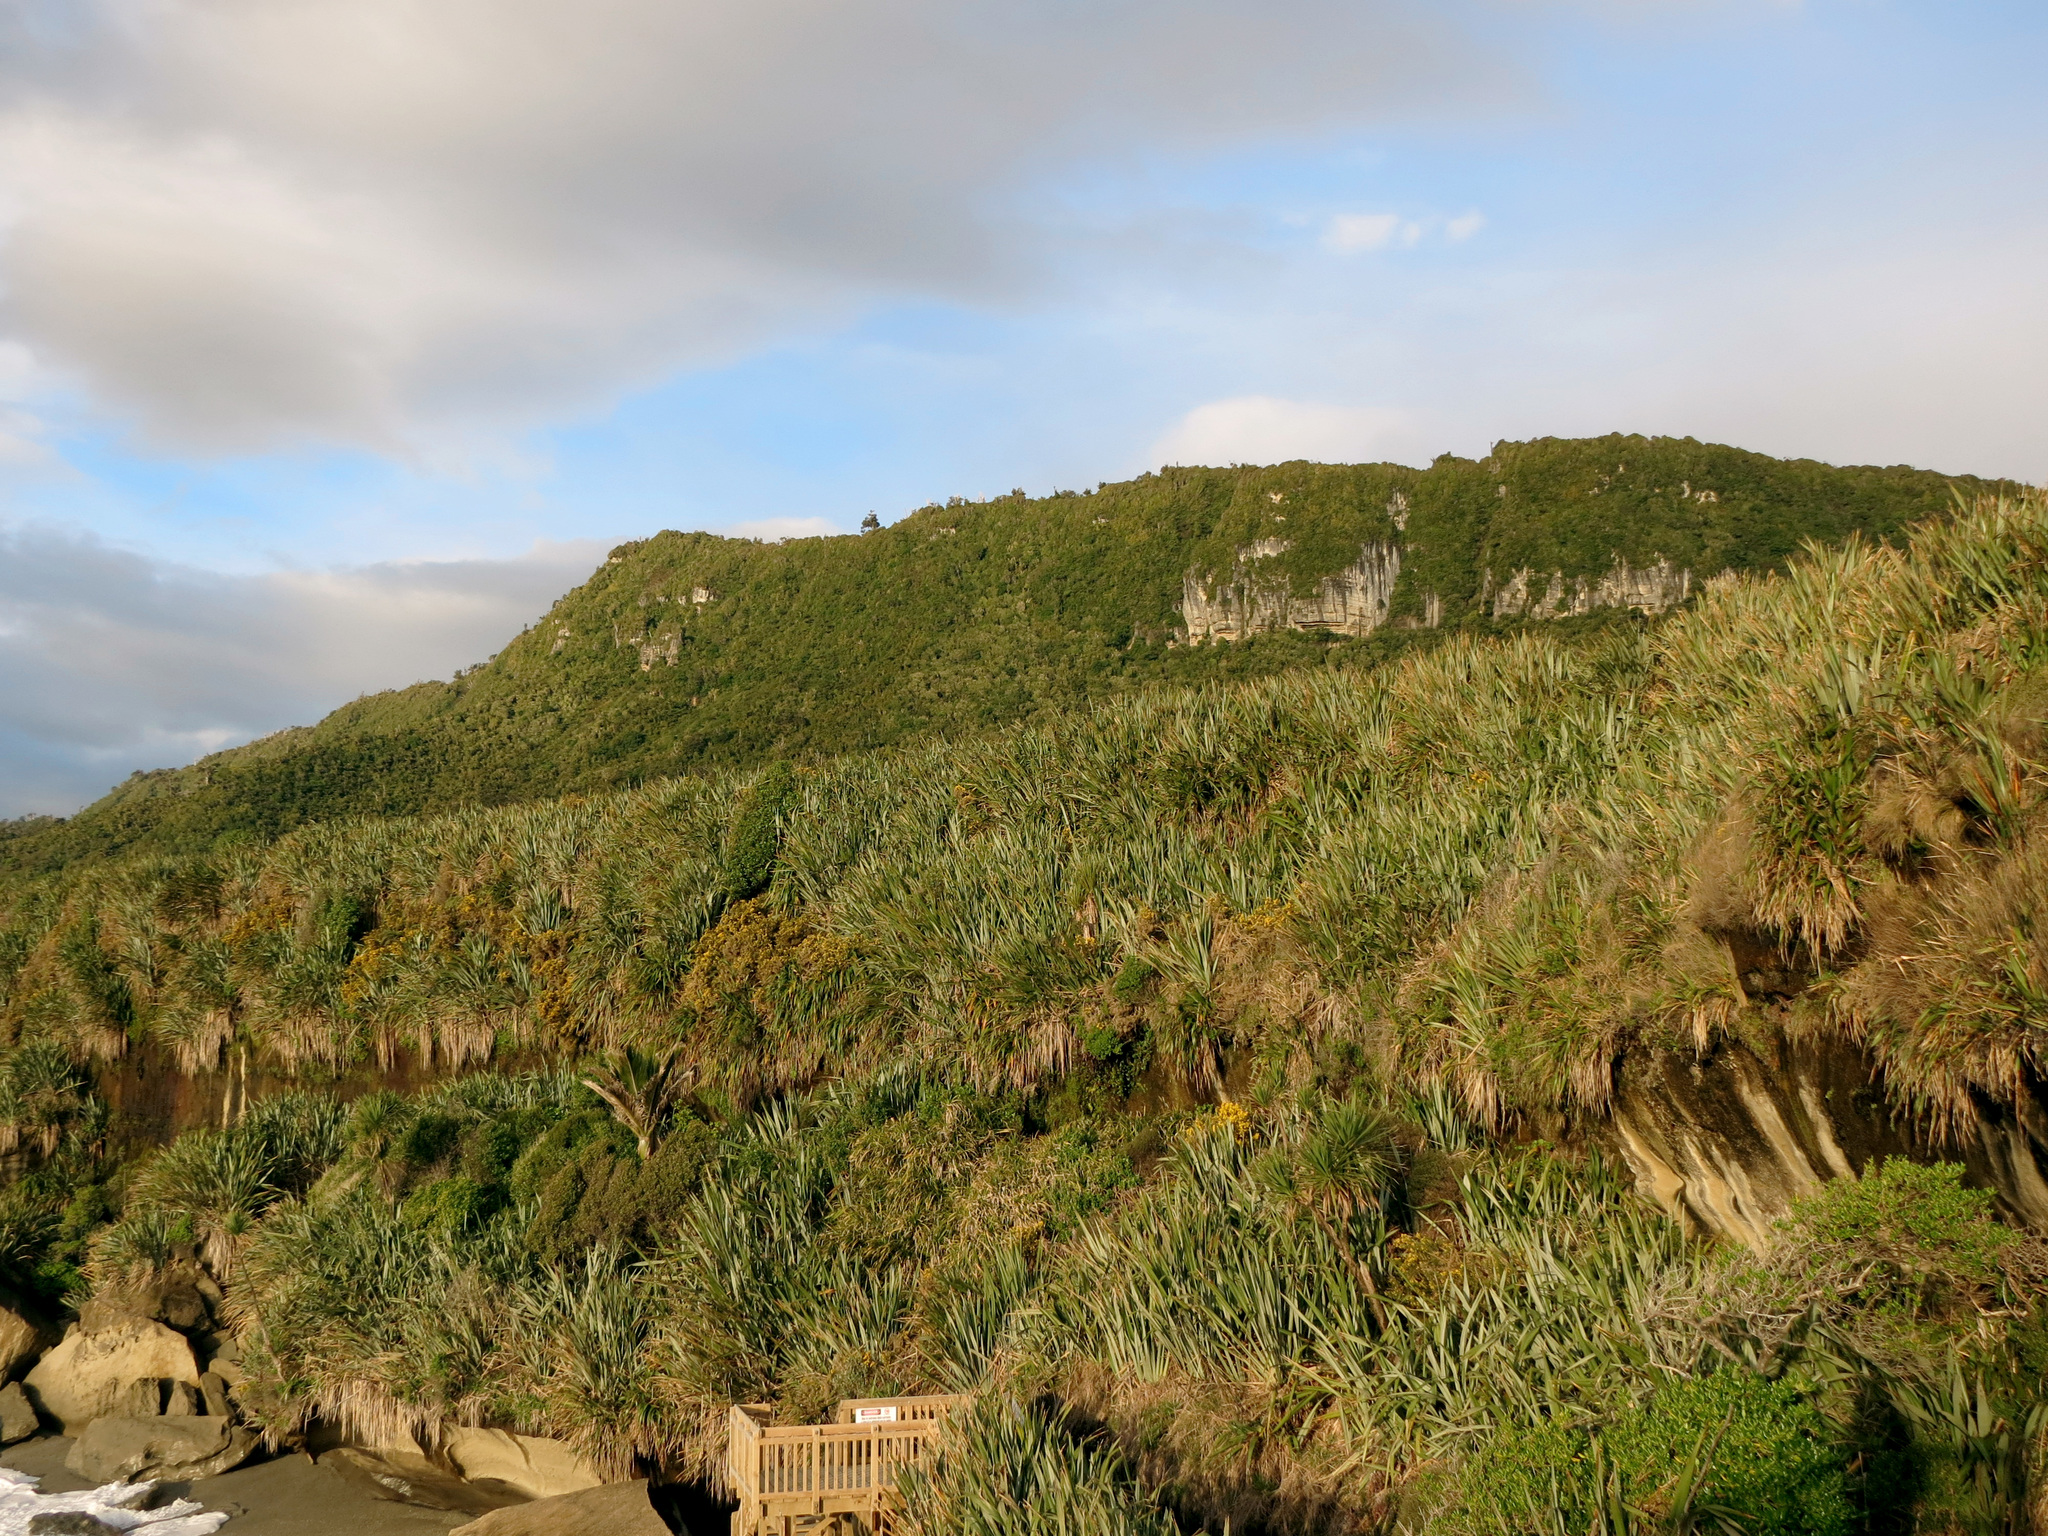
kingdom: Plantae
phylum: Tracheophyta
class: Liliopsida
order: Asparagales
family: Asphodelaceae
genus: Phormium
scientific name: Phormium tenax
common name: New zealand flax
